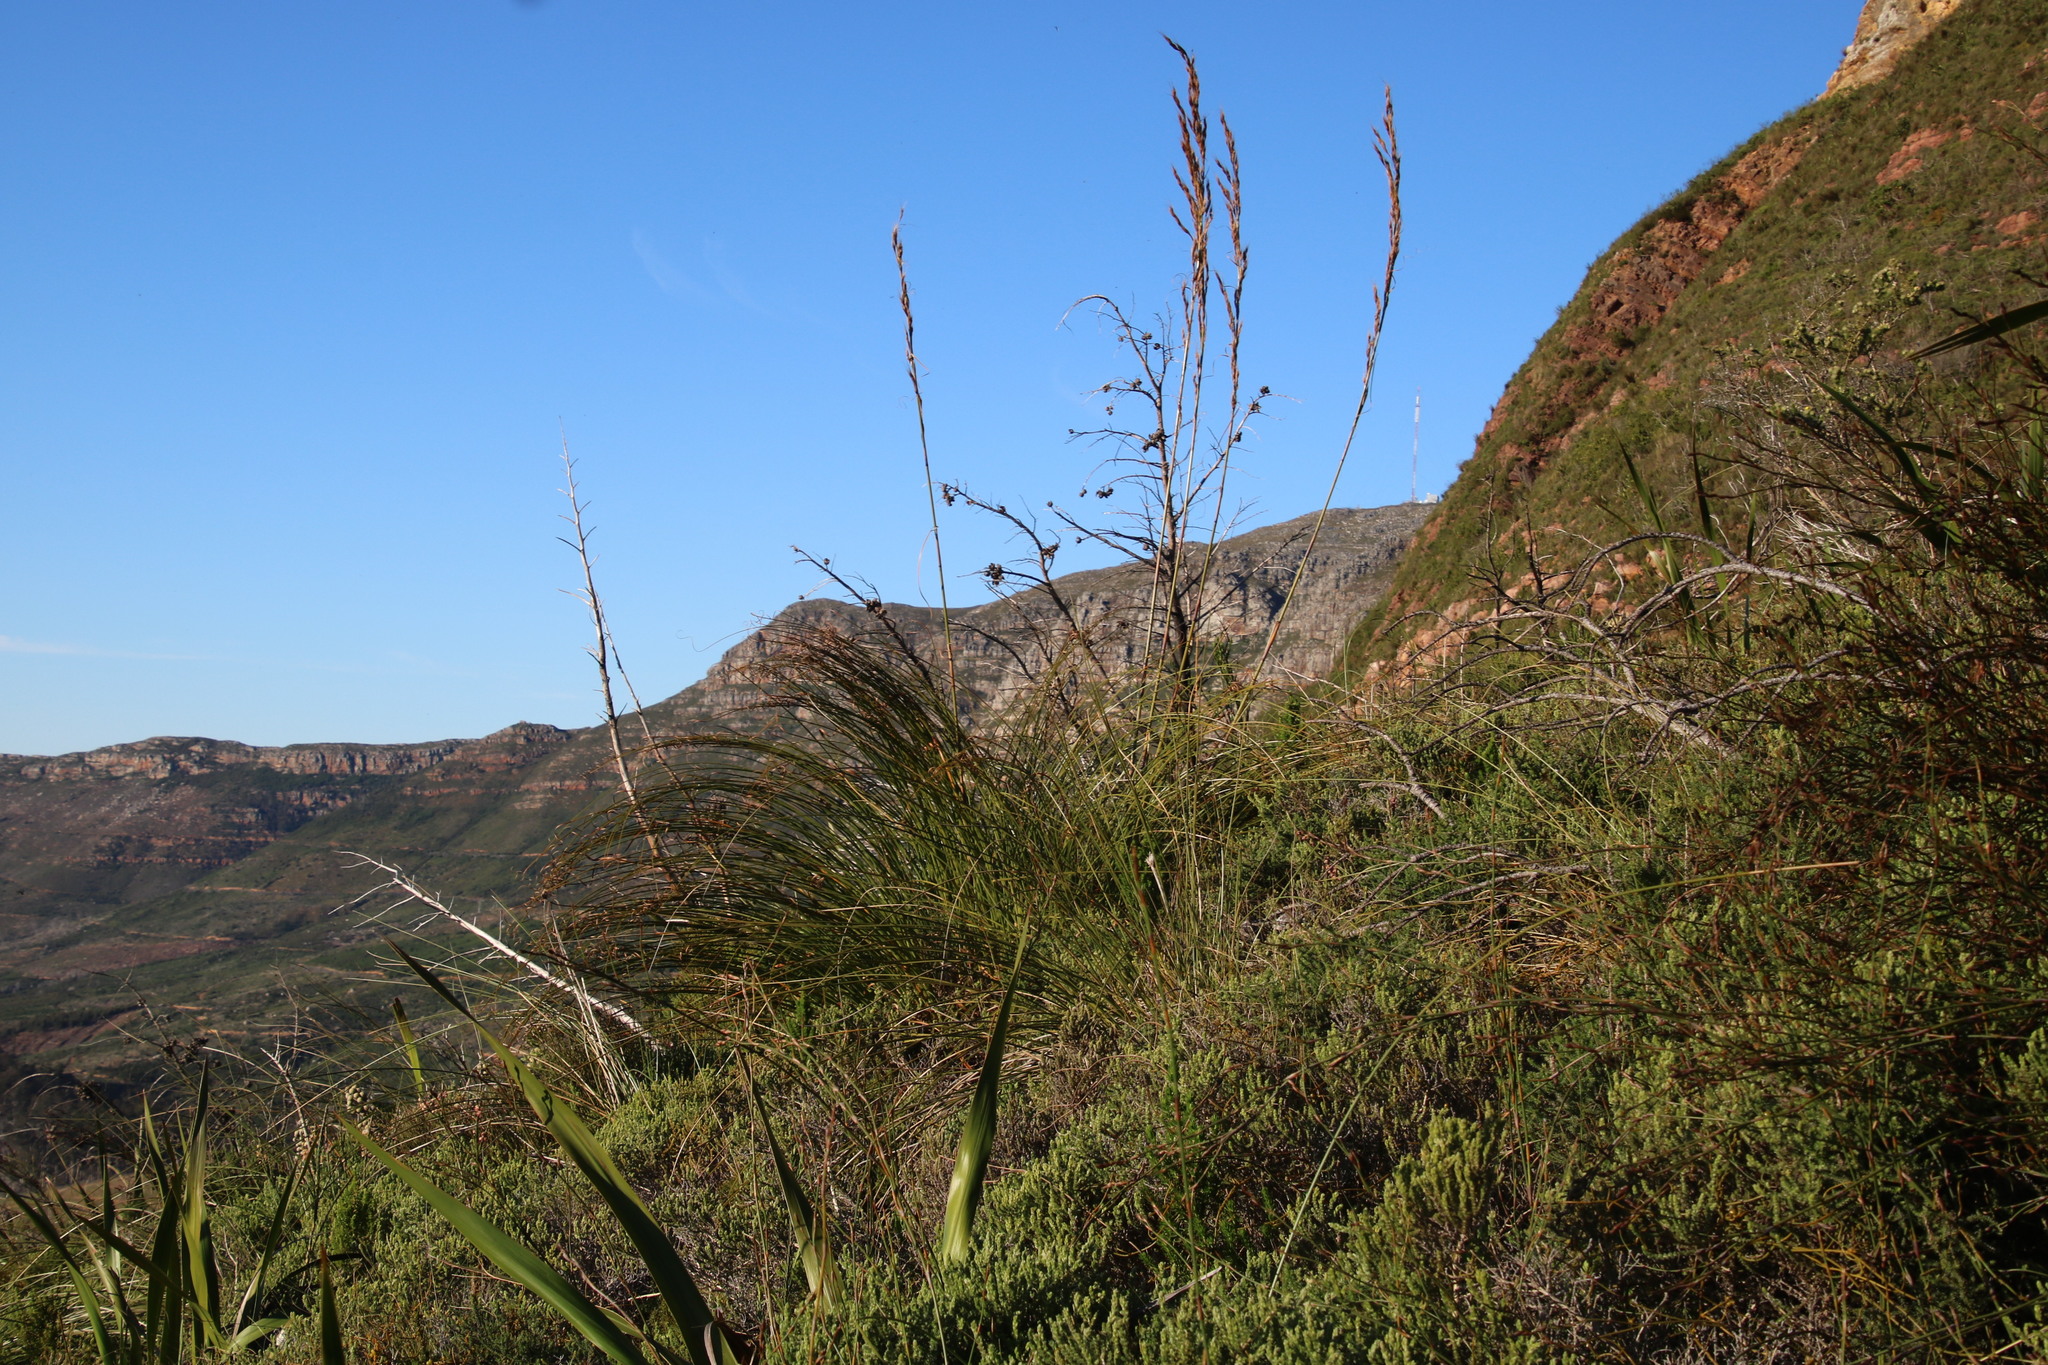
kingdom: Plantae
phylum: Tracheophyta
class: Liliopsida
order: Poales
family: Cyperaceae
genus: Tetraria
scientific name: Tetraria involucrata
